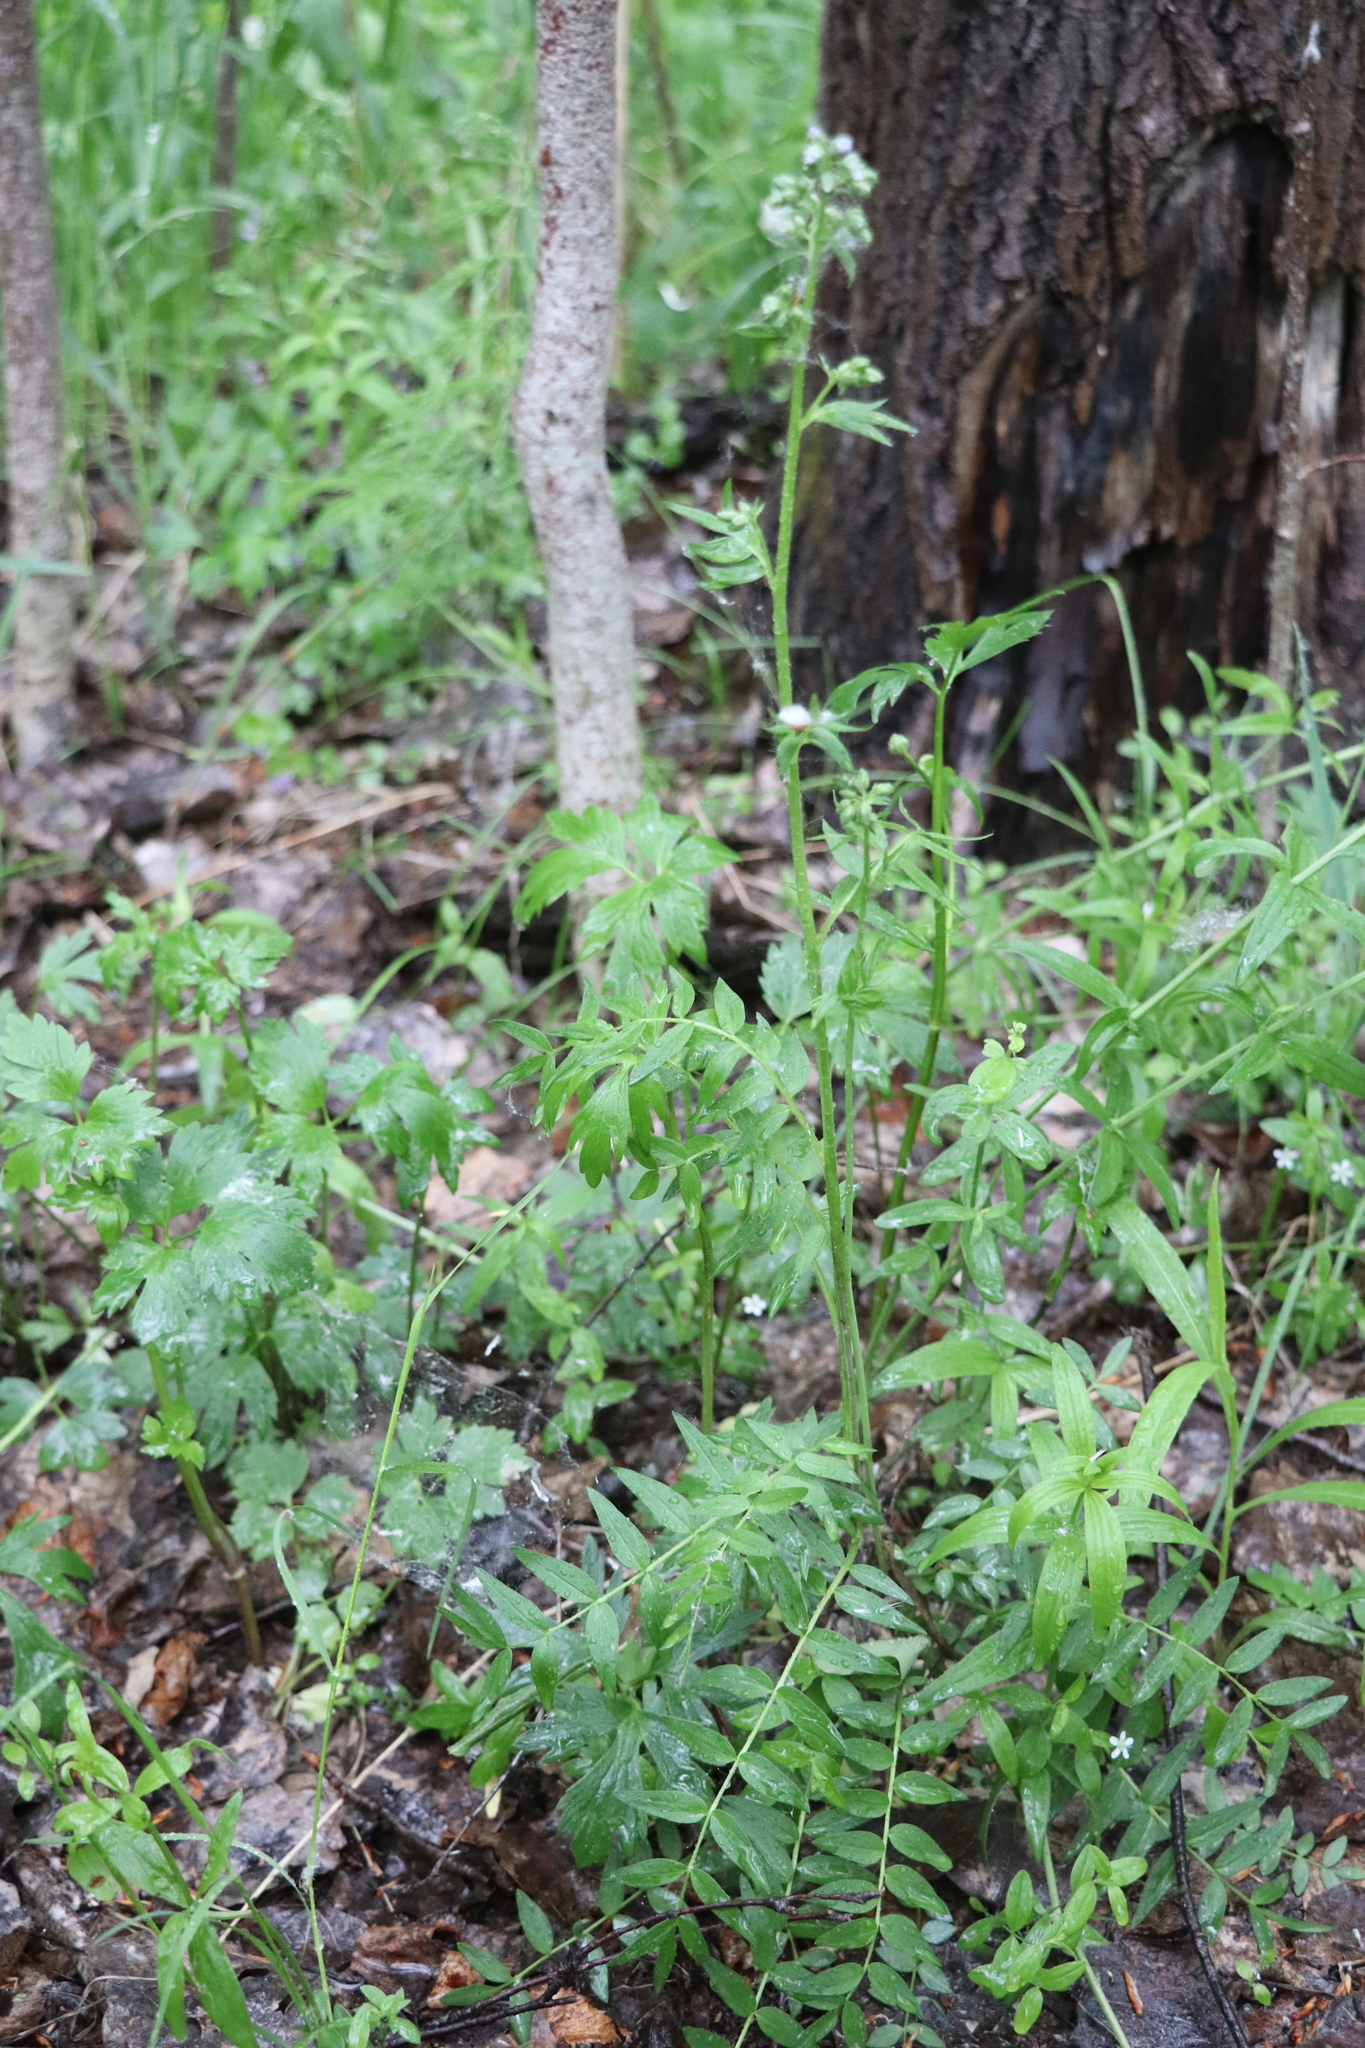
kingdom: Plantae
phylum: Tracheophyta
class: Magnoliopsida
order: Ericales
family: Polemoniaceae
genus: Polemonium
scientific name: Polemonium caeruleum
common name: Jacob's-ladder
